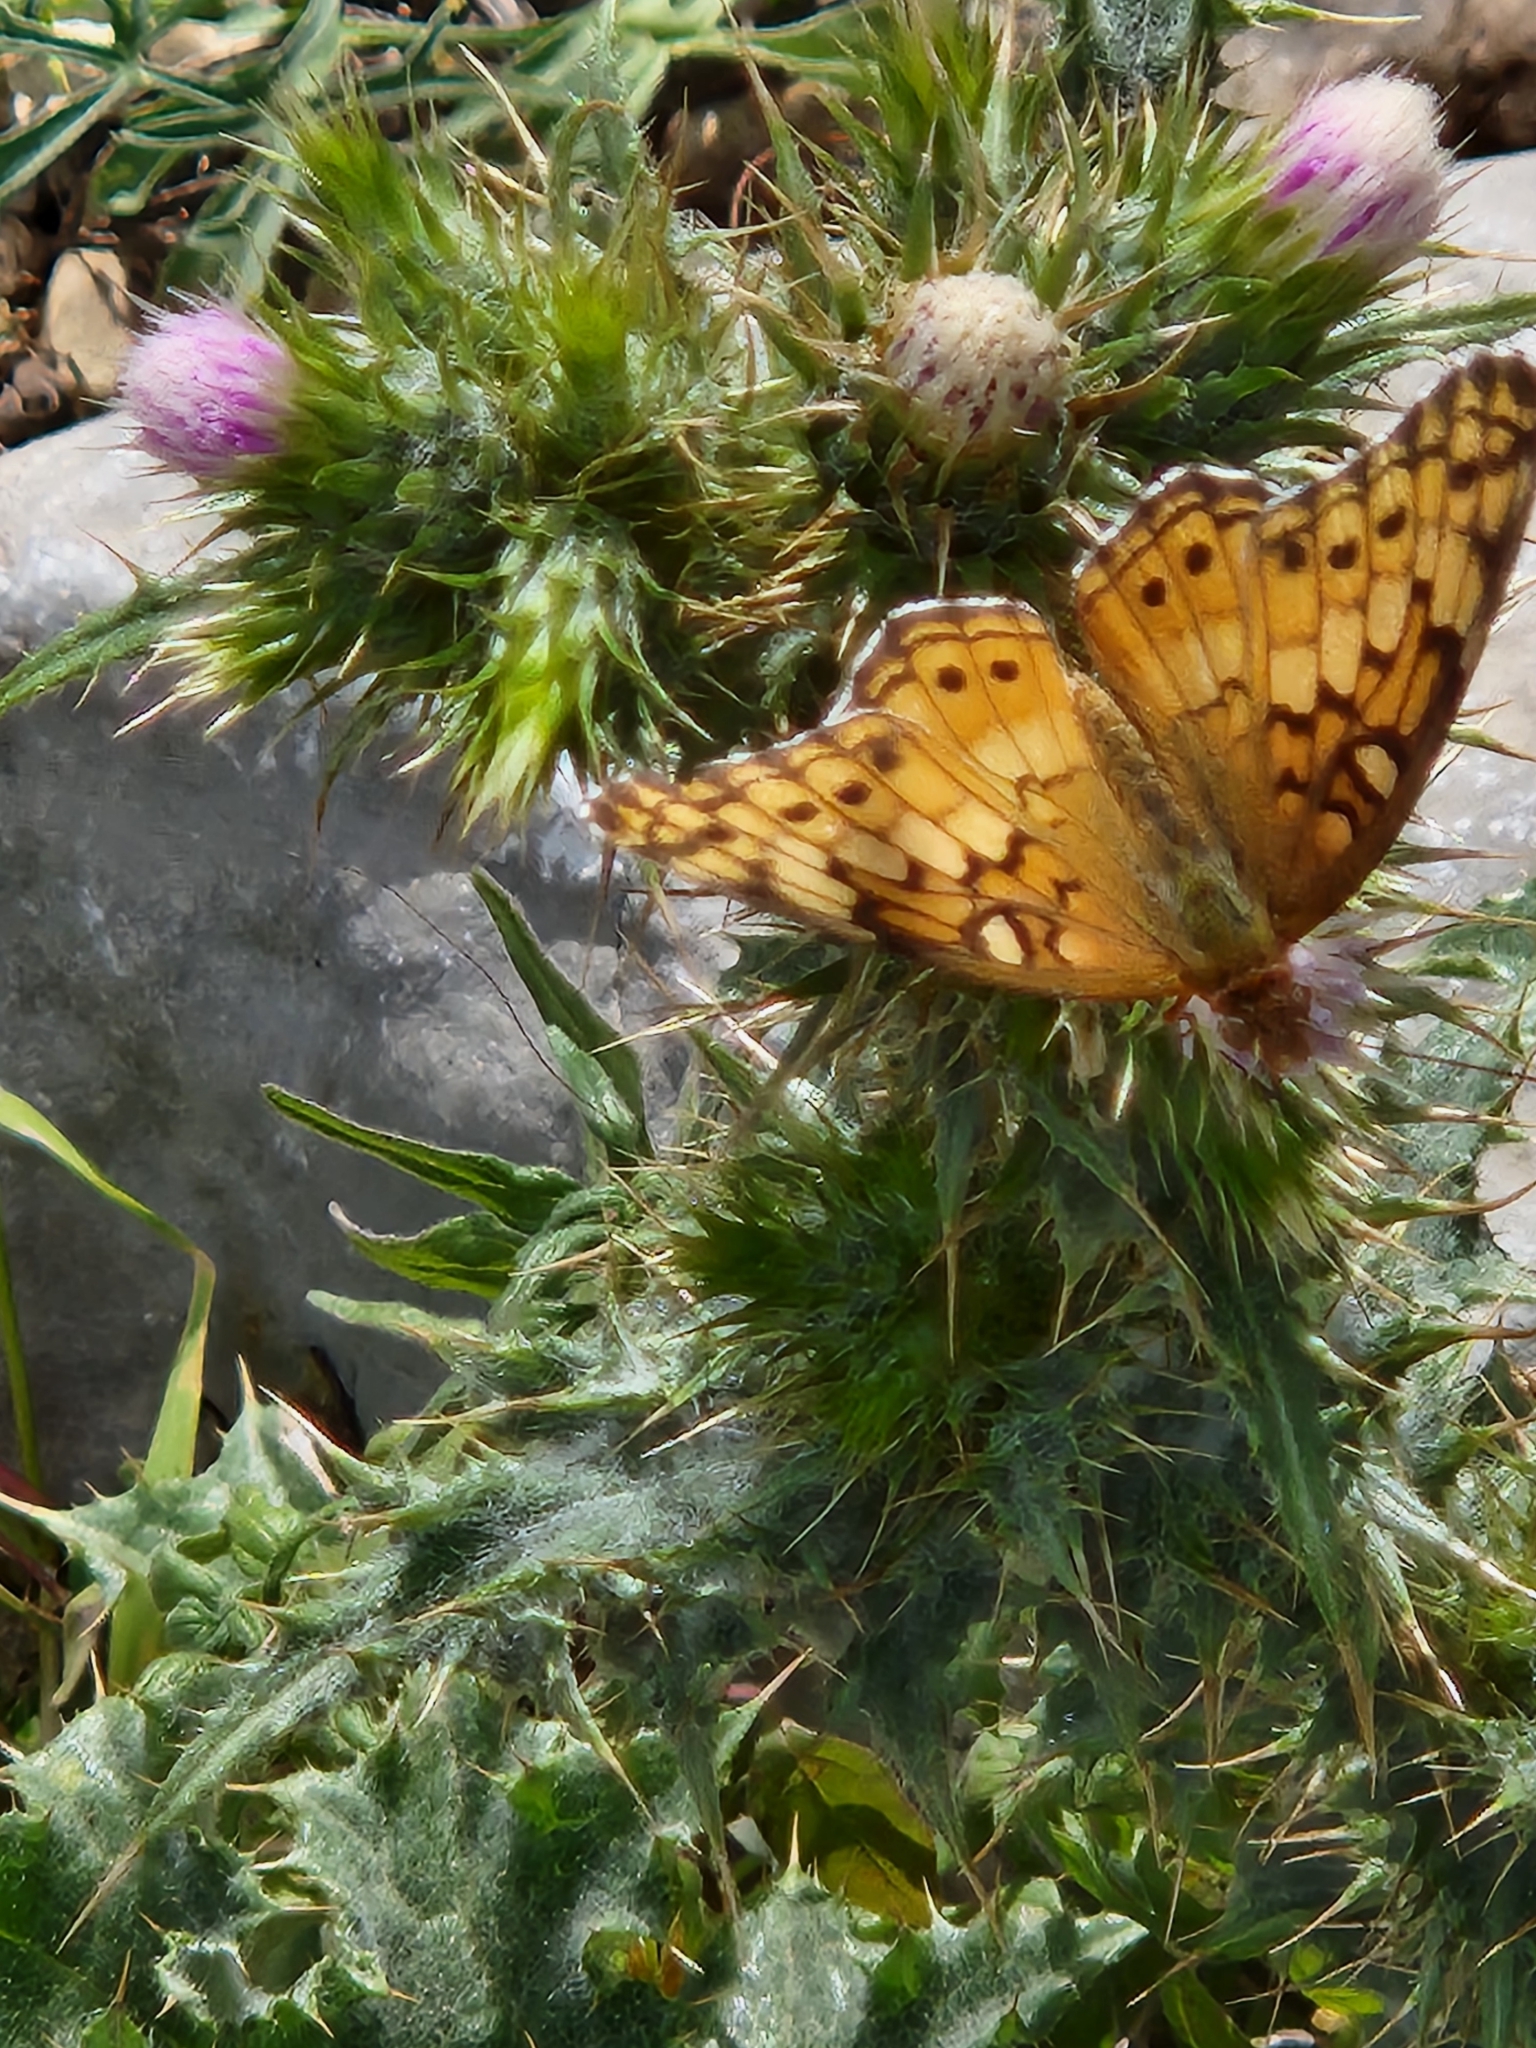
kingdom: Animalia
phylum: Arthropoda
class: Insecta
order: Lepidoptera
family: Nymphalidae
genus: Euptoieta
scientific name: Euptoieta claudia
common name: Variegated fritillary
